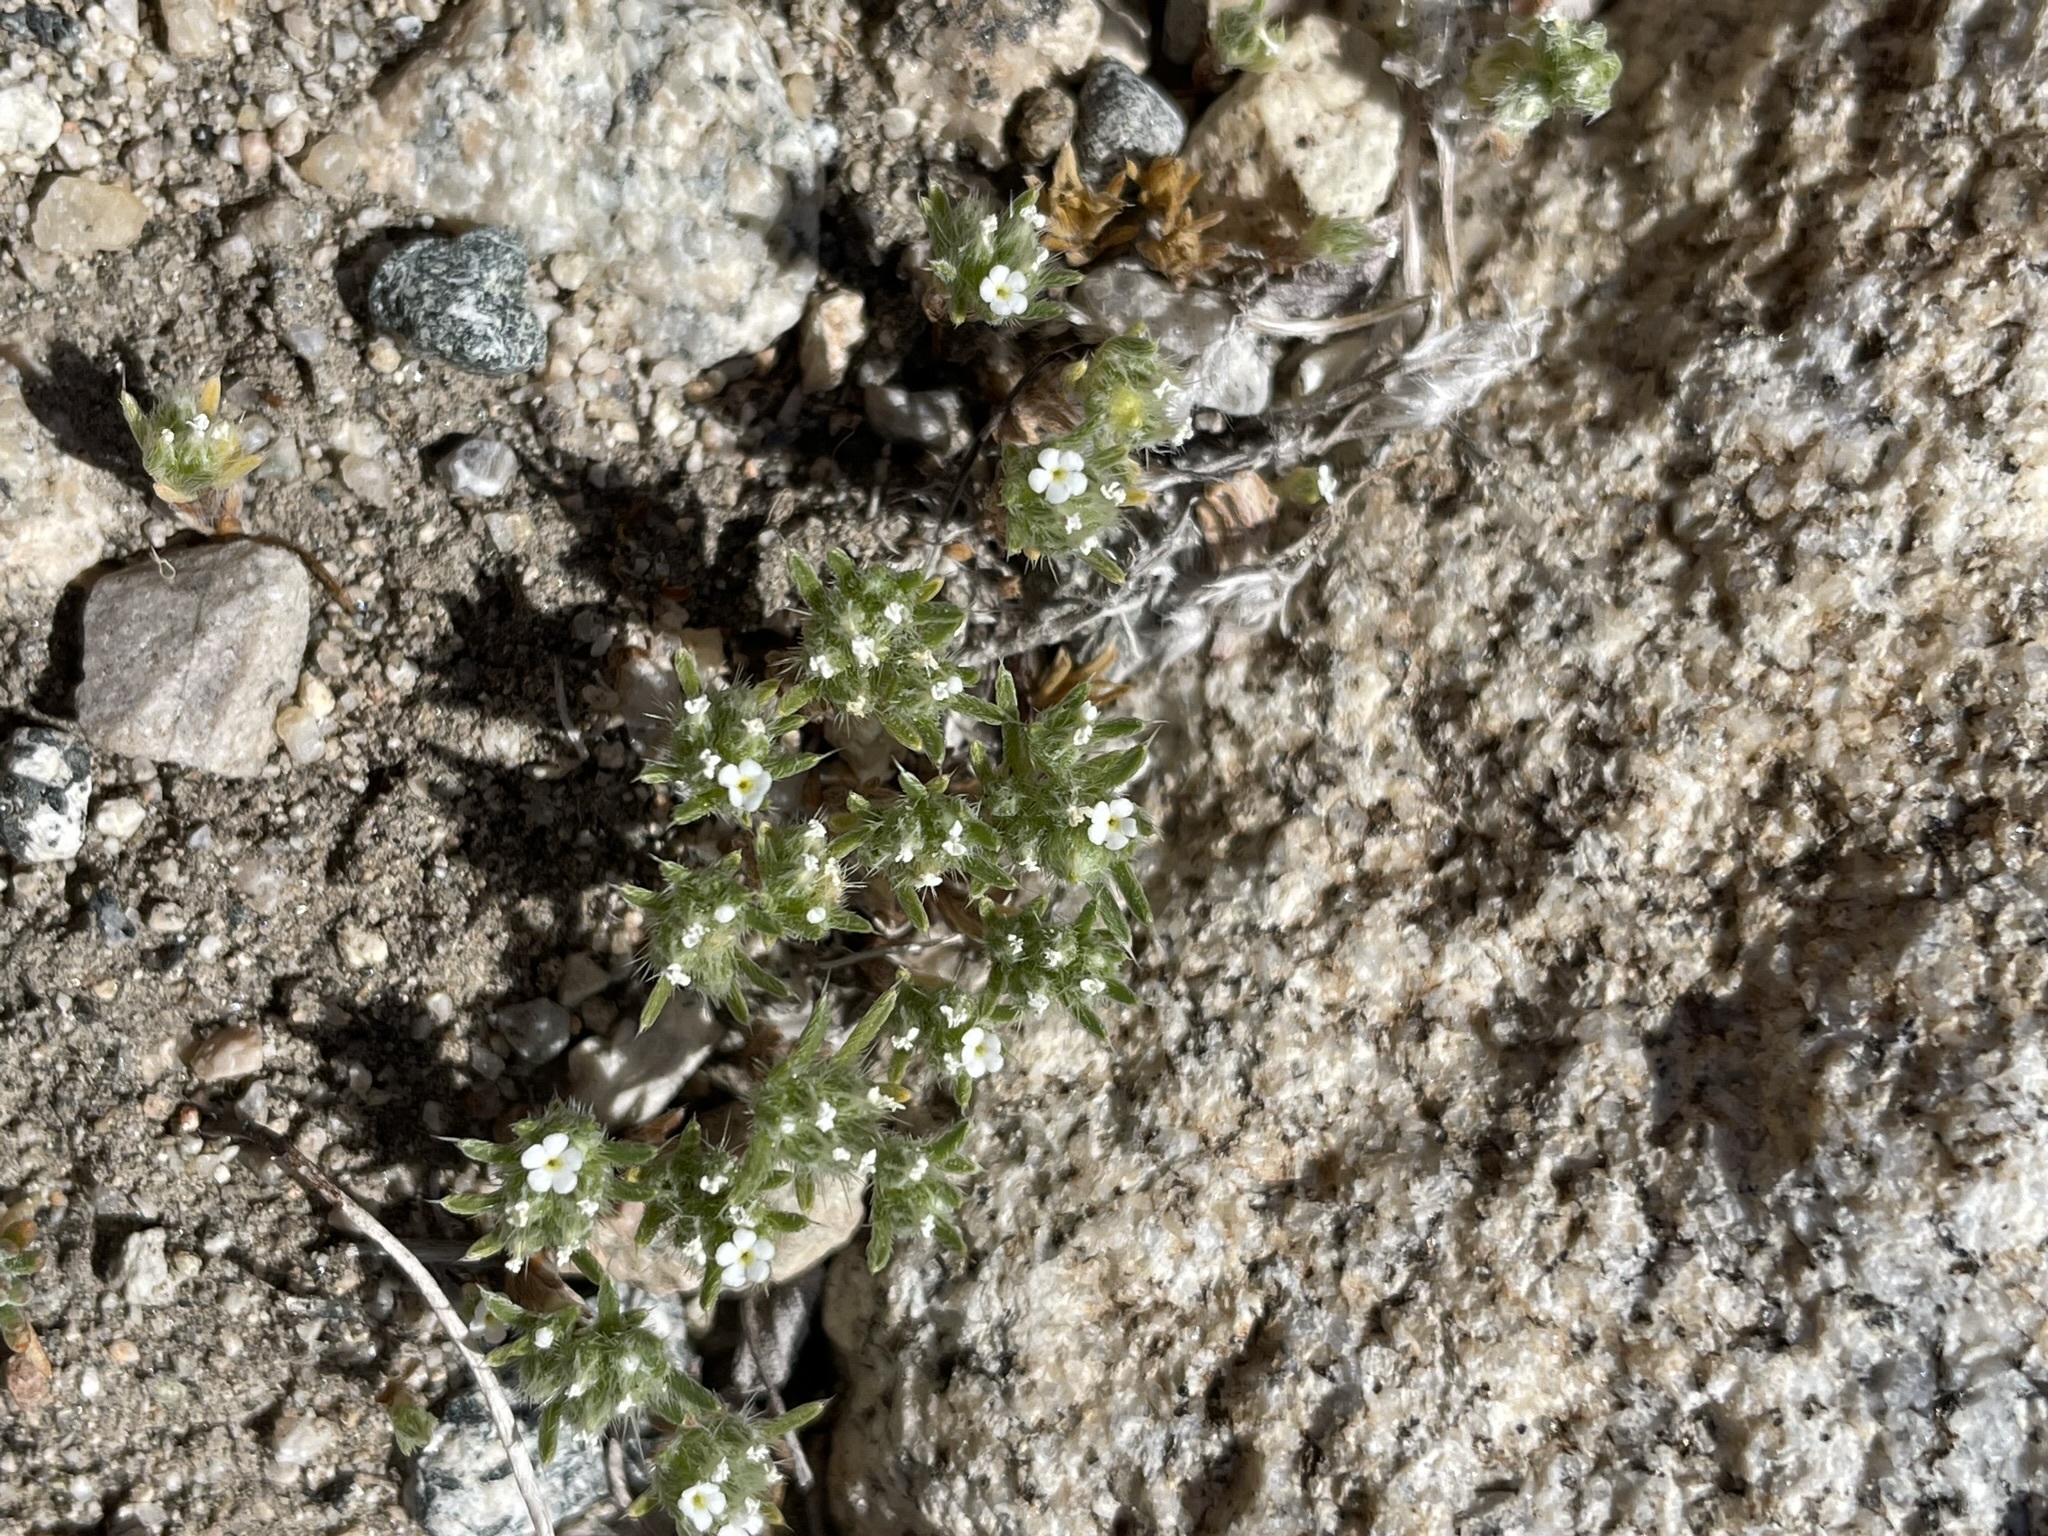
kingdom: Plantae
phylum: Tracheophyta
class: Magnoliopsida
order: Boraginales
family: Boraginaceae
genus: Greeneocharis
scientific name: Greeneocharis circumscissa
